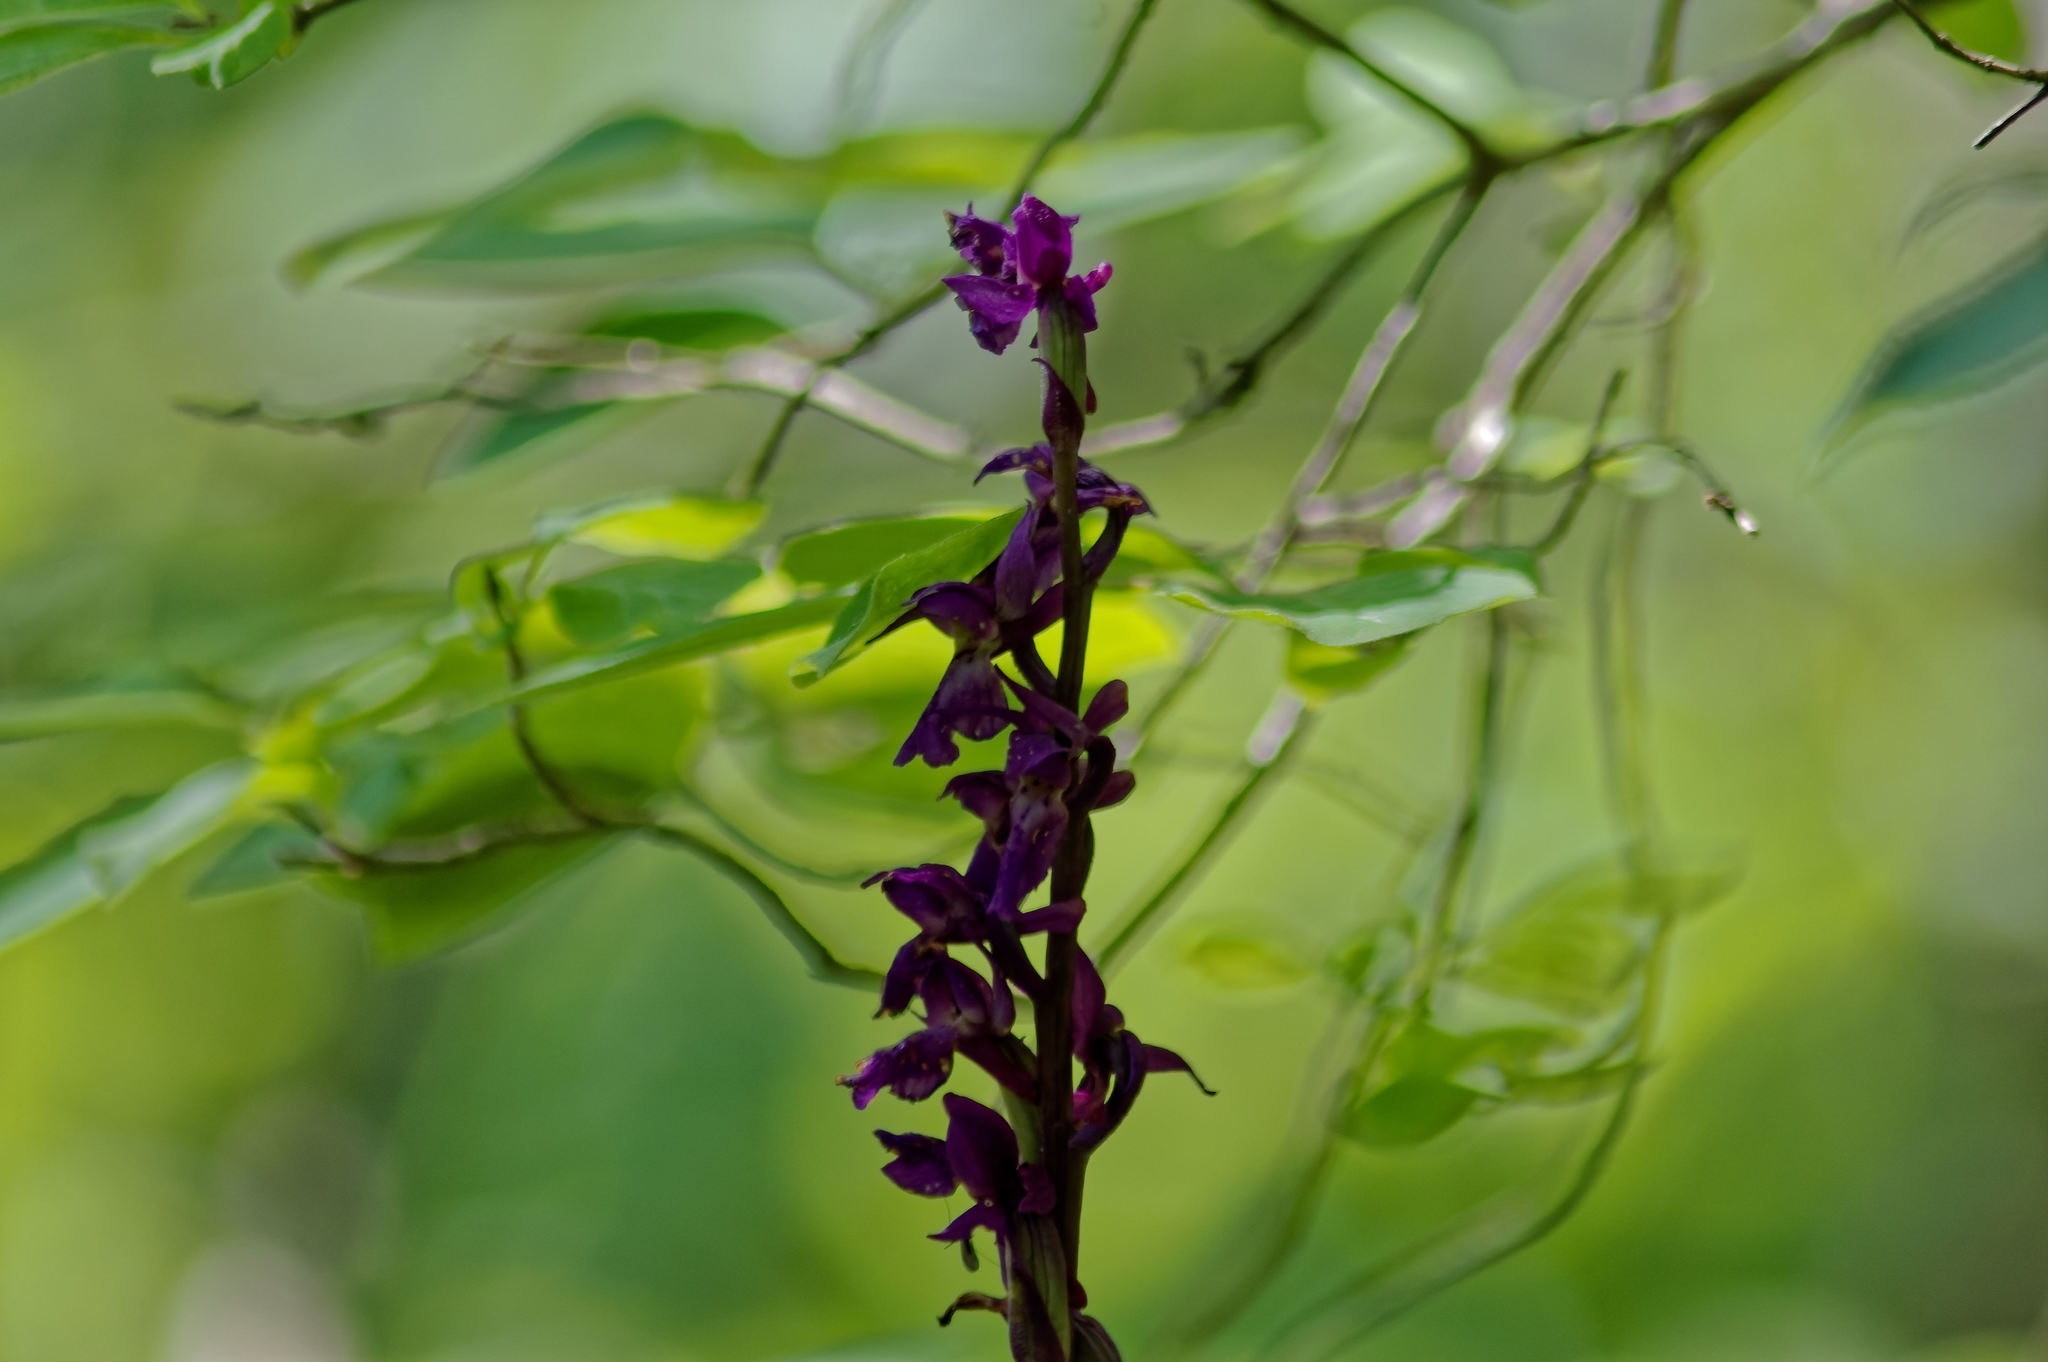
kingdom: Plantae
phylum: Tracheophyta
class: Liliopsida
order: Asparagales
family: Orchidaceae
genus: Orchis
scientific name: Orchis mascula
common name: Early-purple orchid
